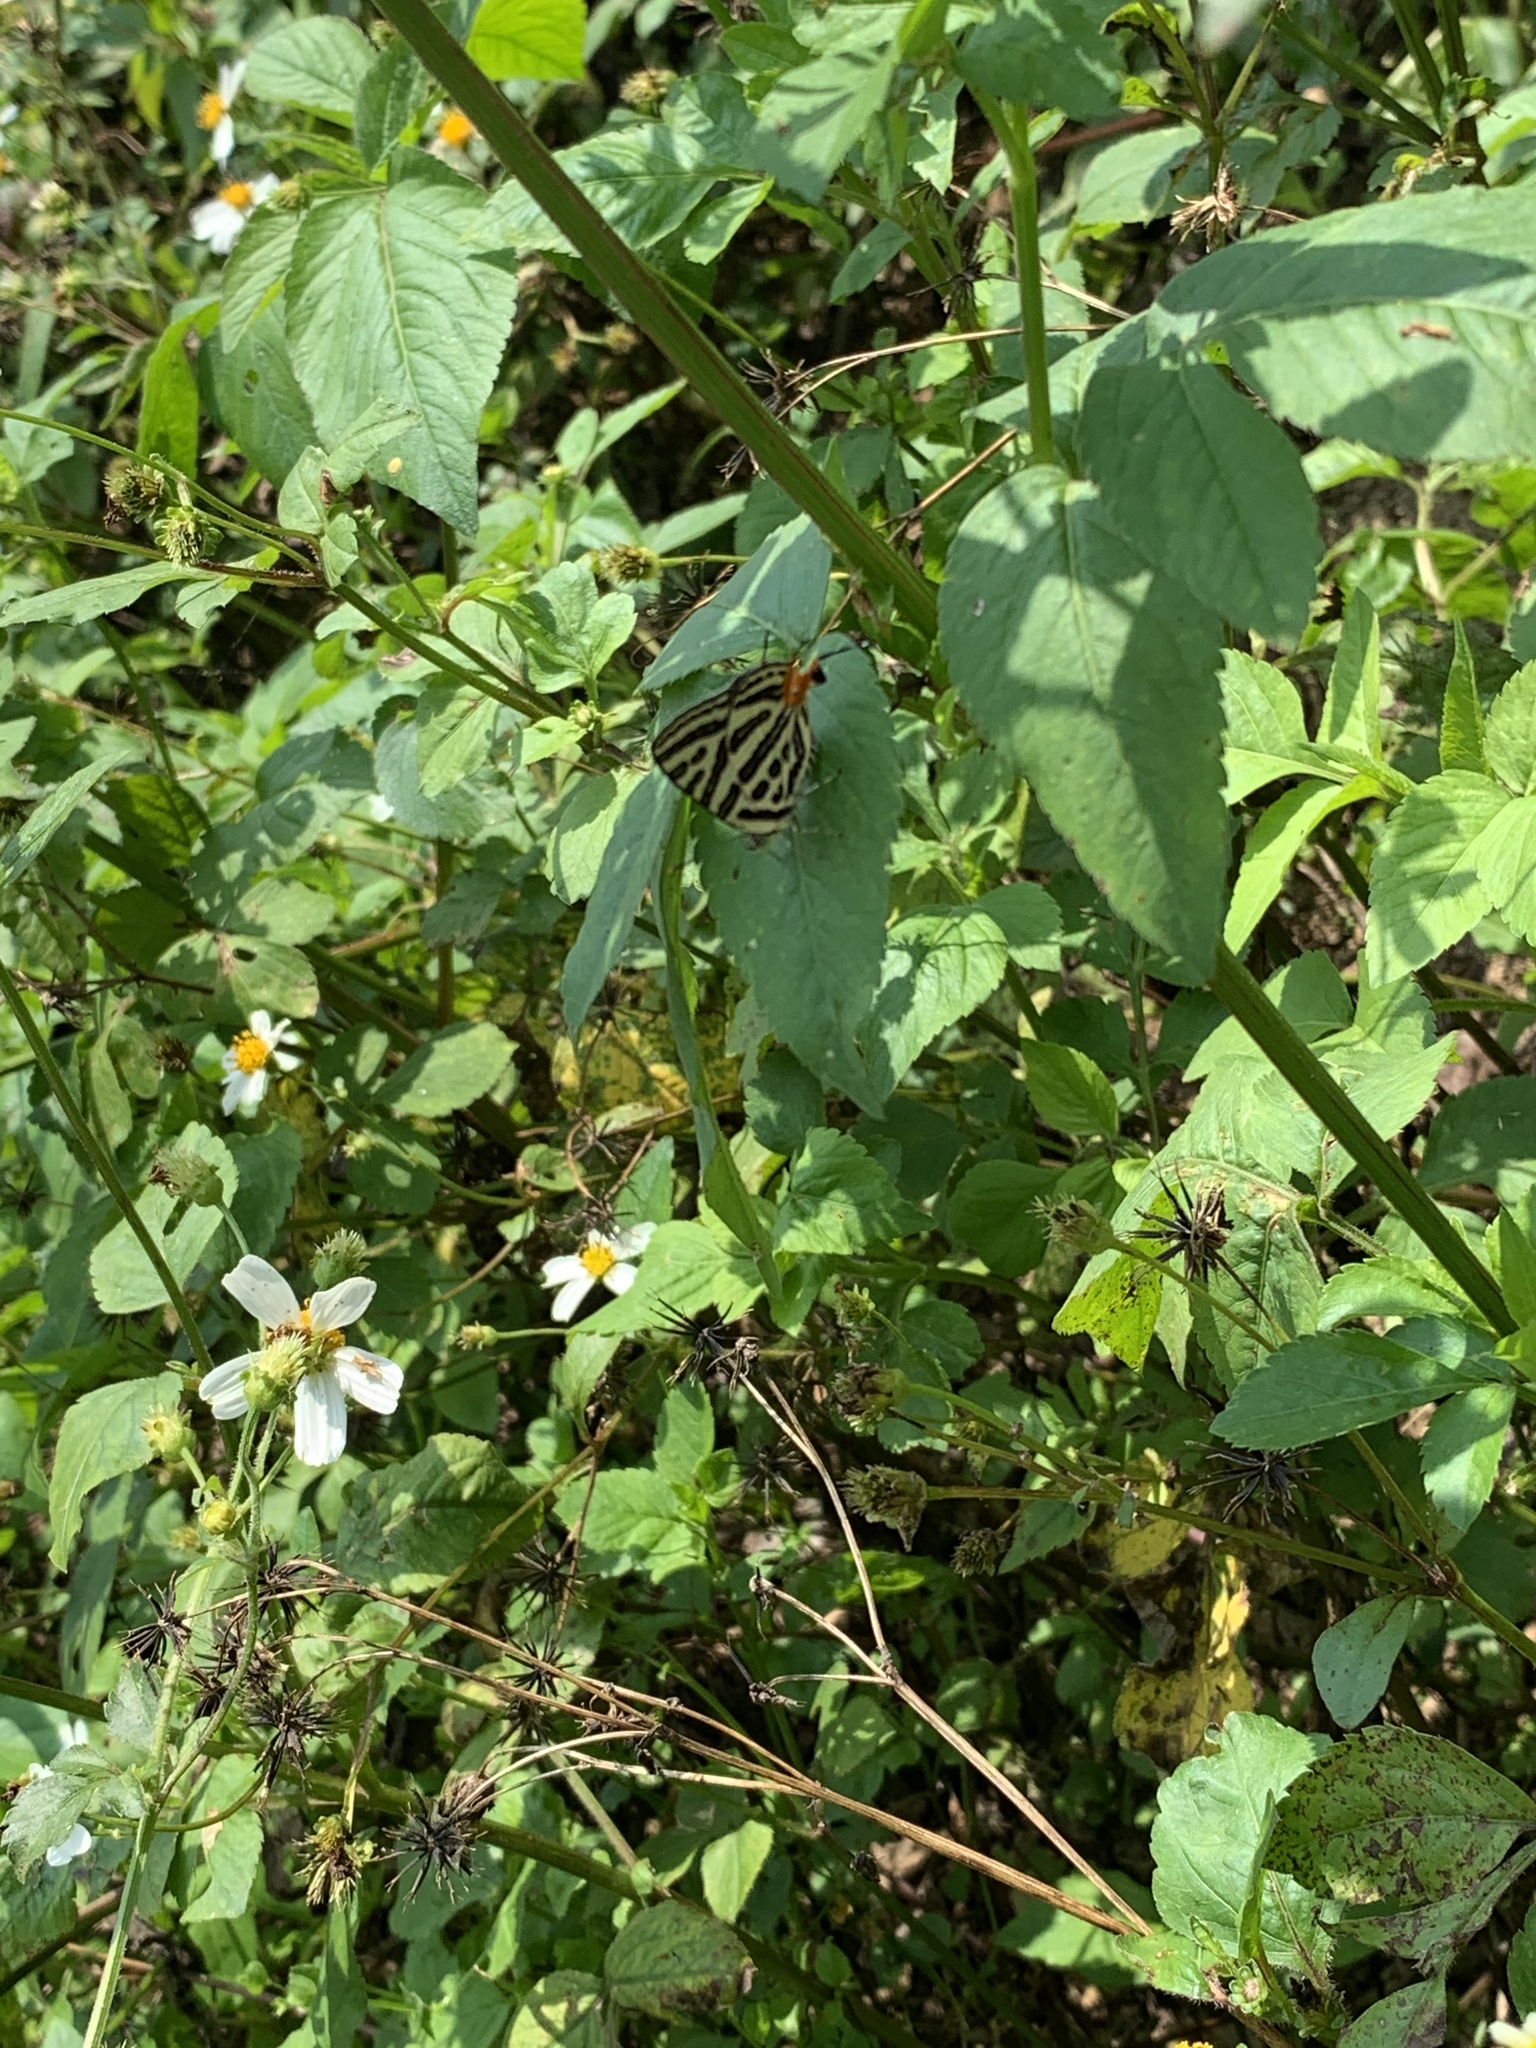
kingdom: Animalia
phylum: Arthropoda
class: Insecta
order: Lepidoptera
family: Lycaenidae
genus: Cigaritis
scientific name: Cigaritis syama
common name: Club silverline
